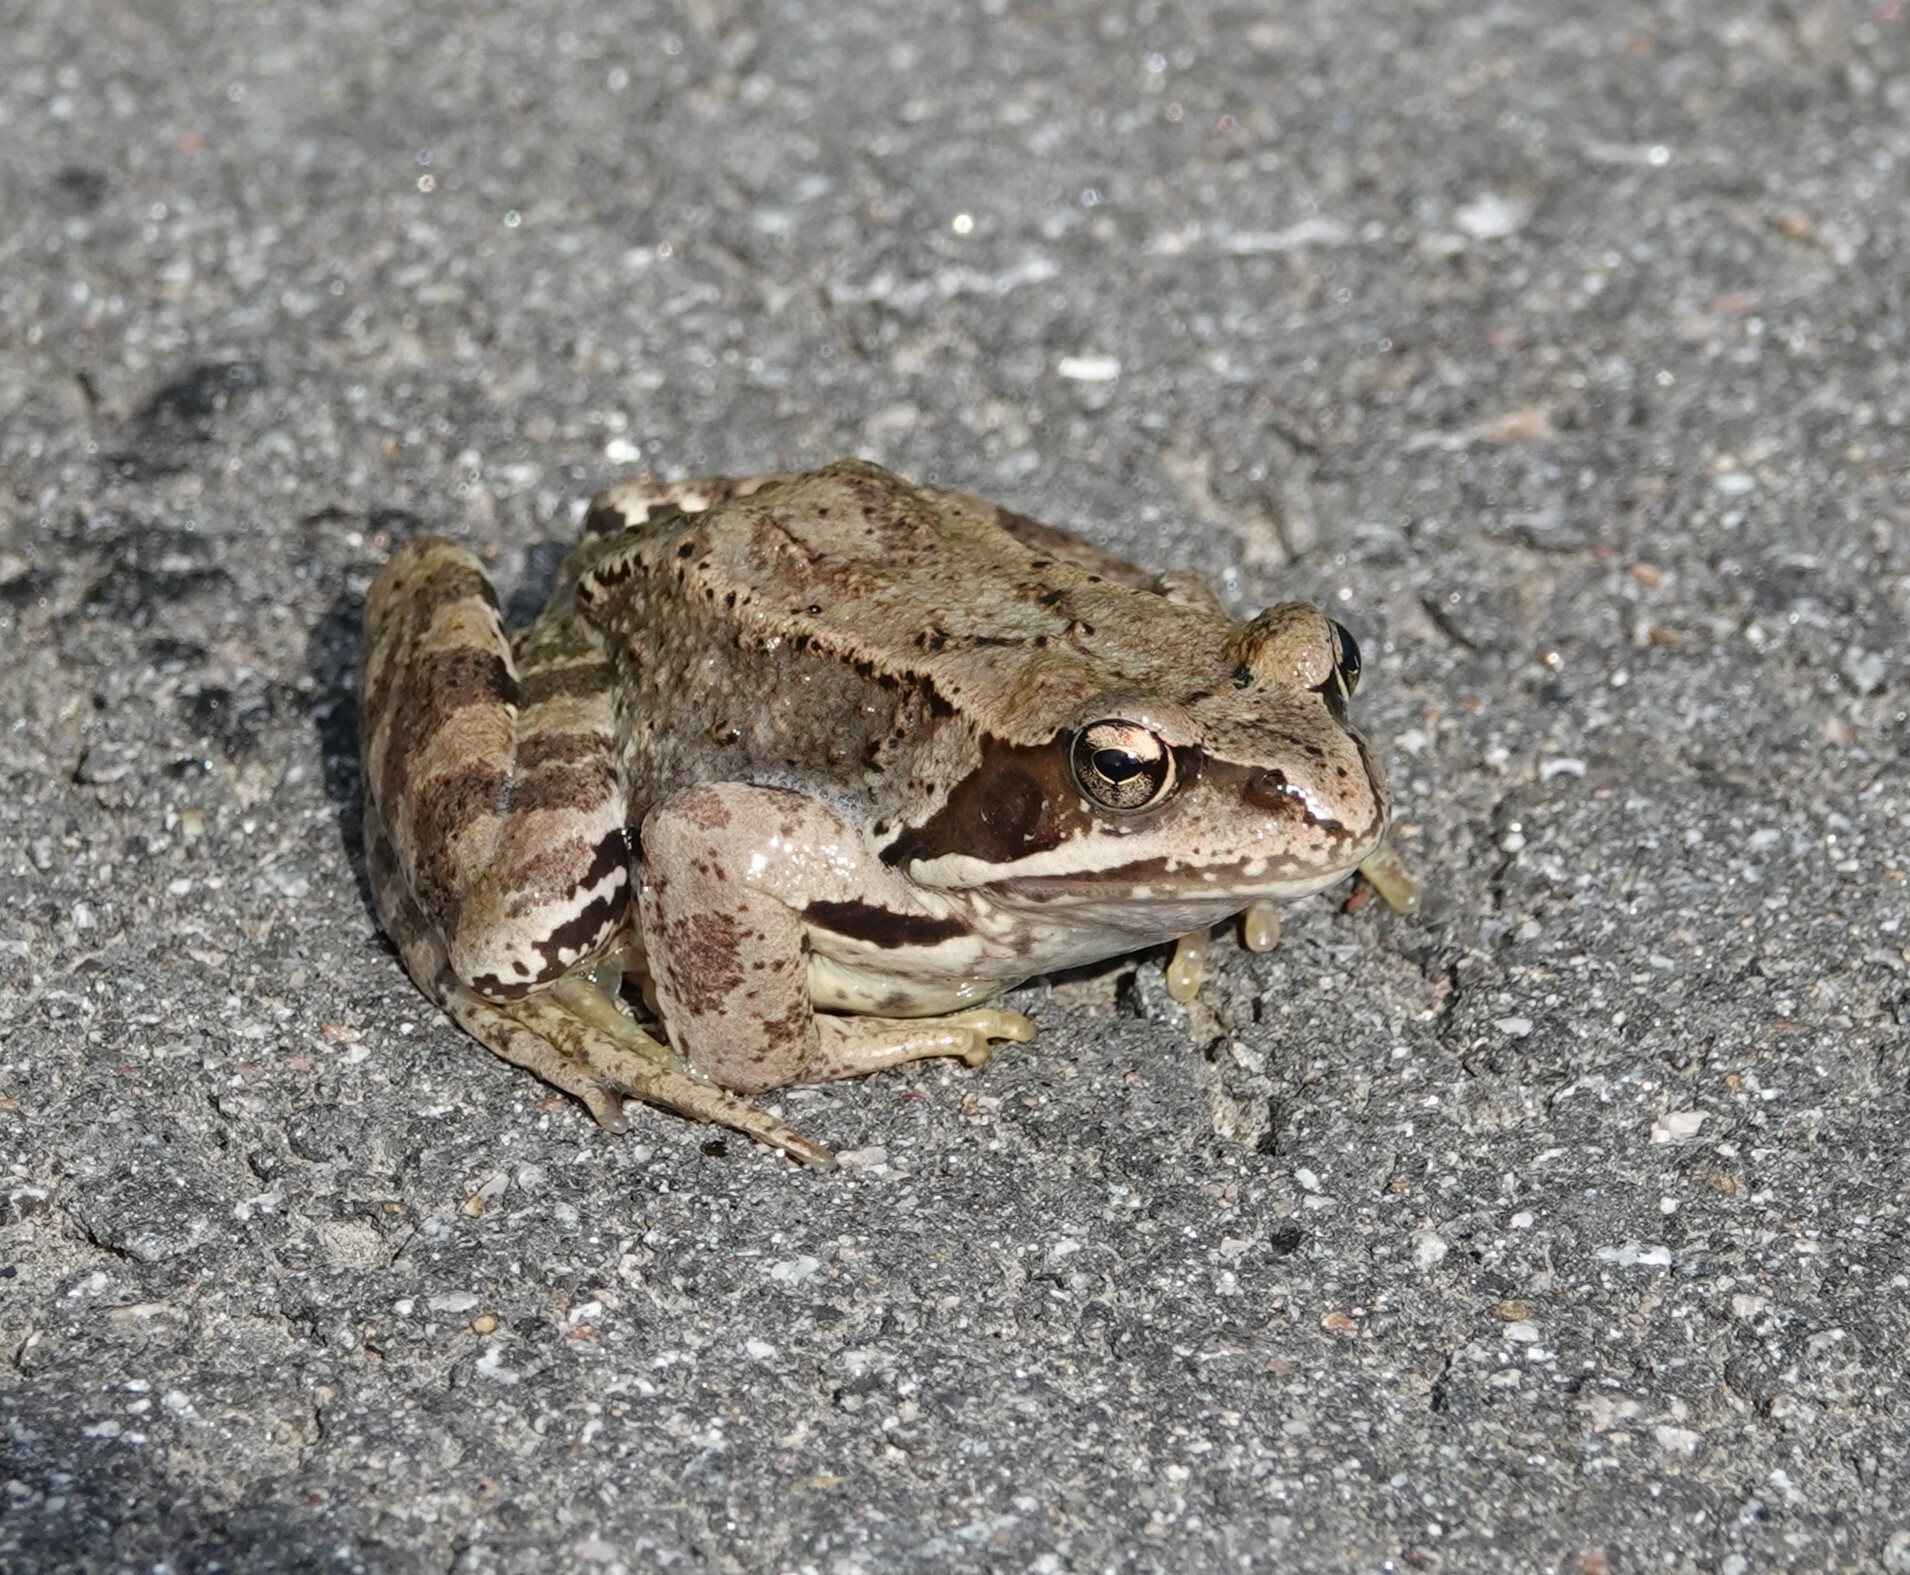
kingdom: Animalia
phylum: Chordata
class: Amphibia
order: Anura
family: Ranidae
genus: Rana
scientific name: Rana temporaria
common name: Common frog
